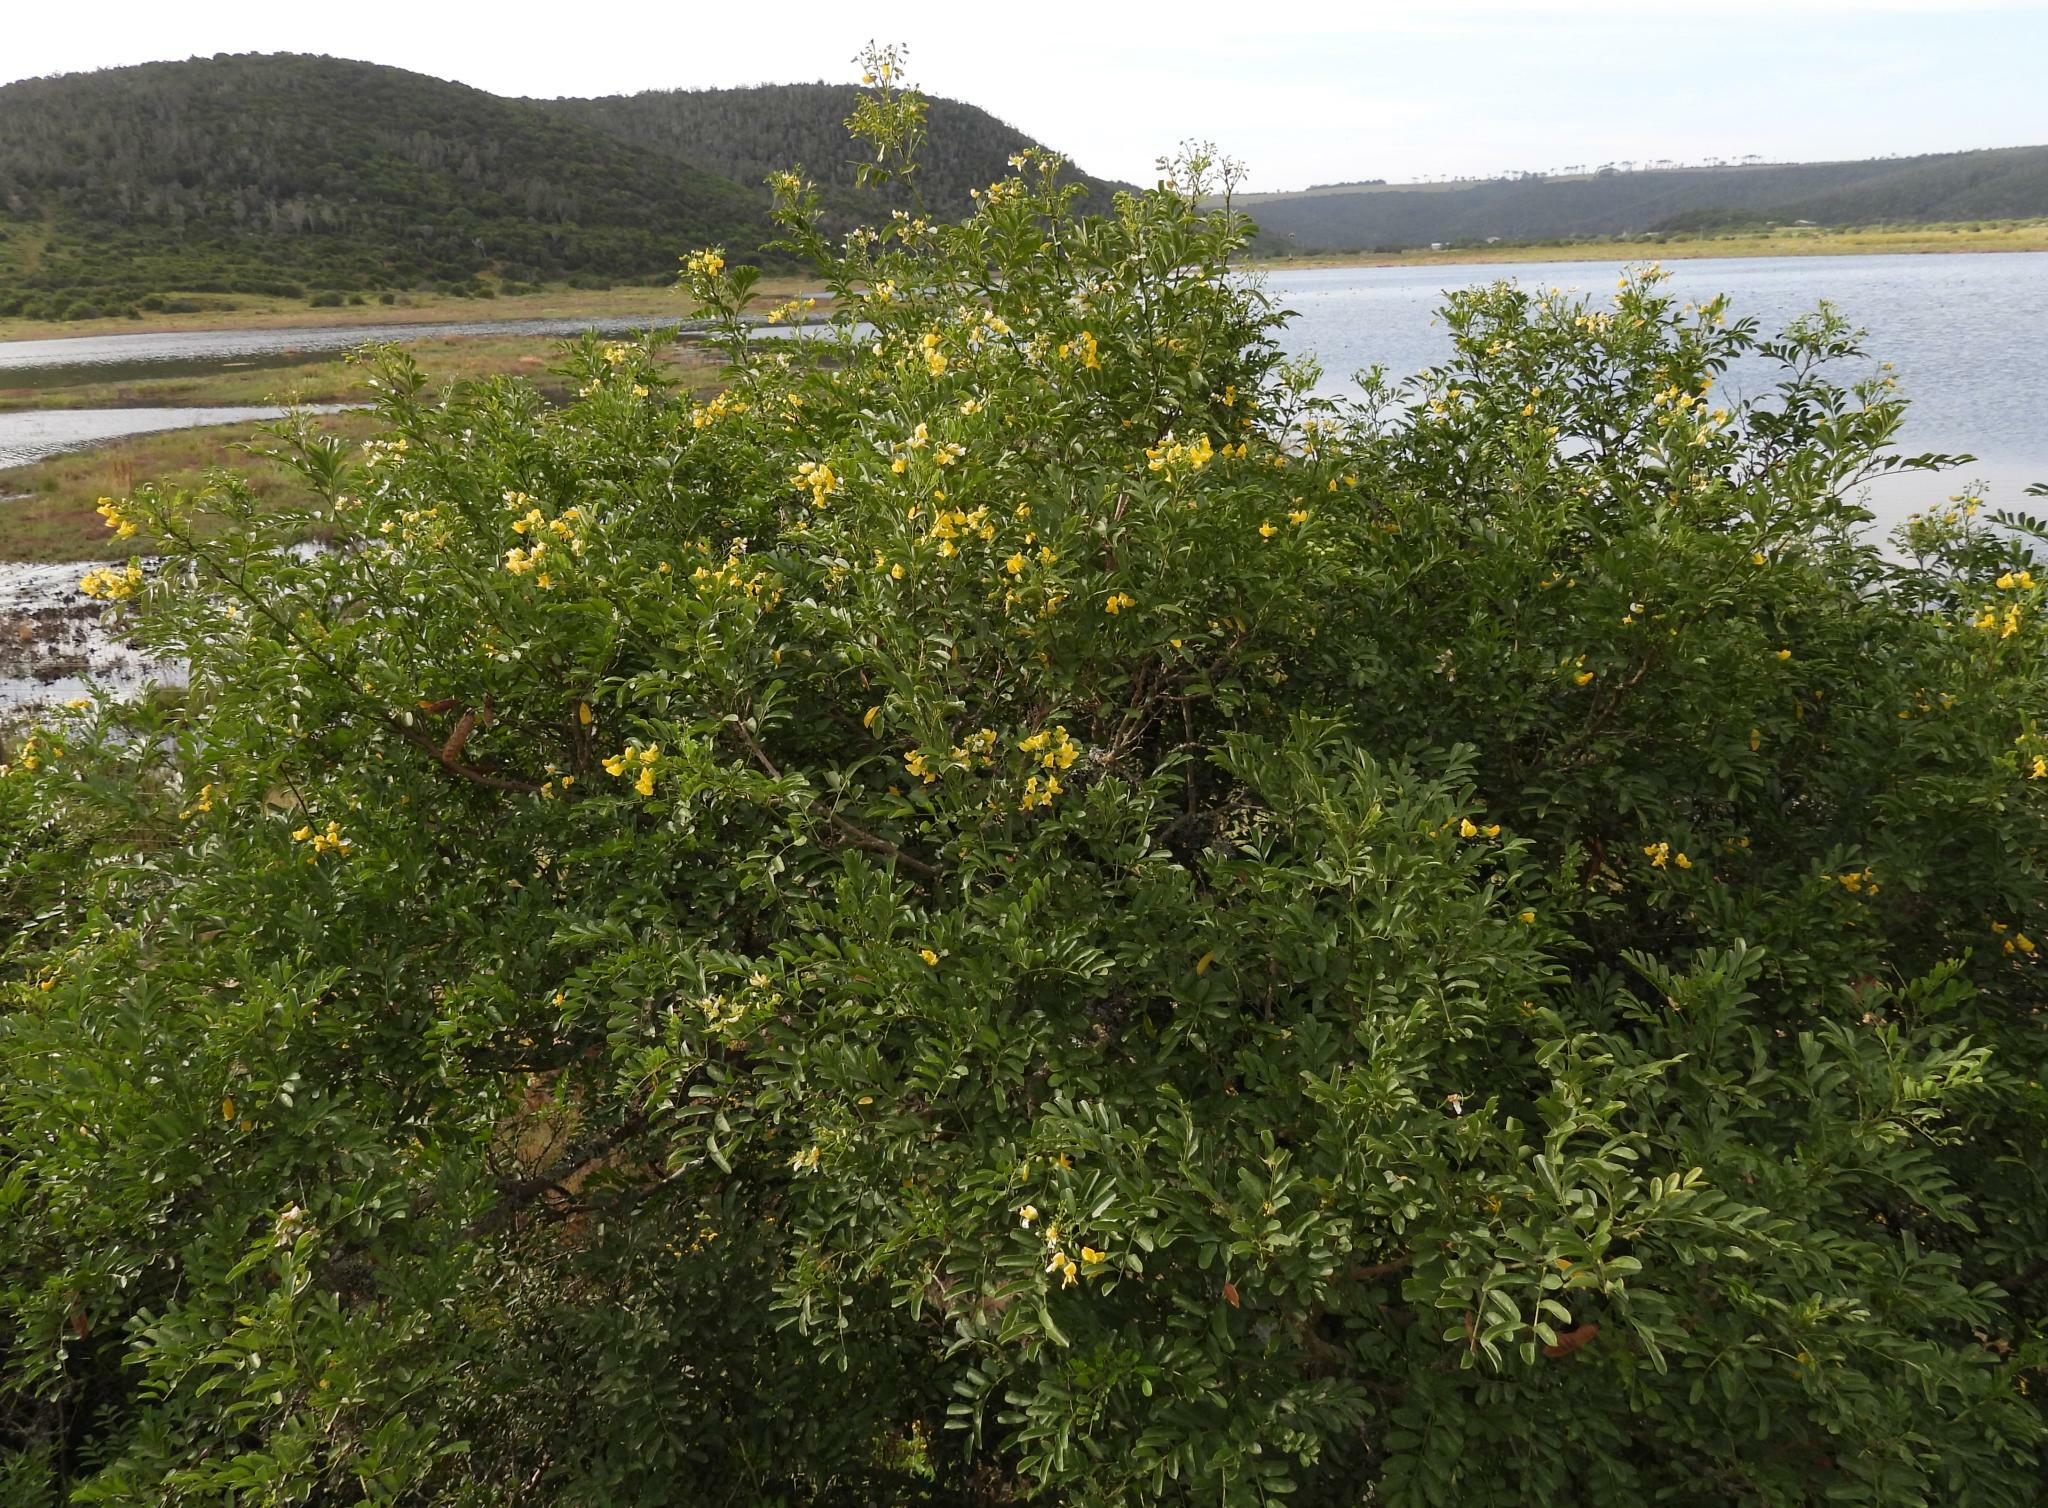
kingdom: Plantae
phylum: Tracheophyta
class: Magnoliopsida
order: Fabales
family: Fabaceae
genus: Calpurnia
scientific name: Calpurnia aurea
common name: Wild laburnum
